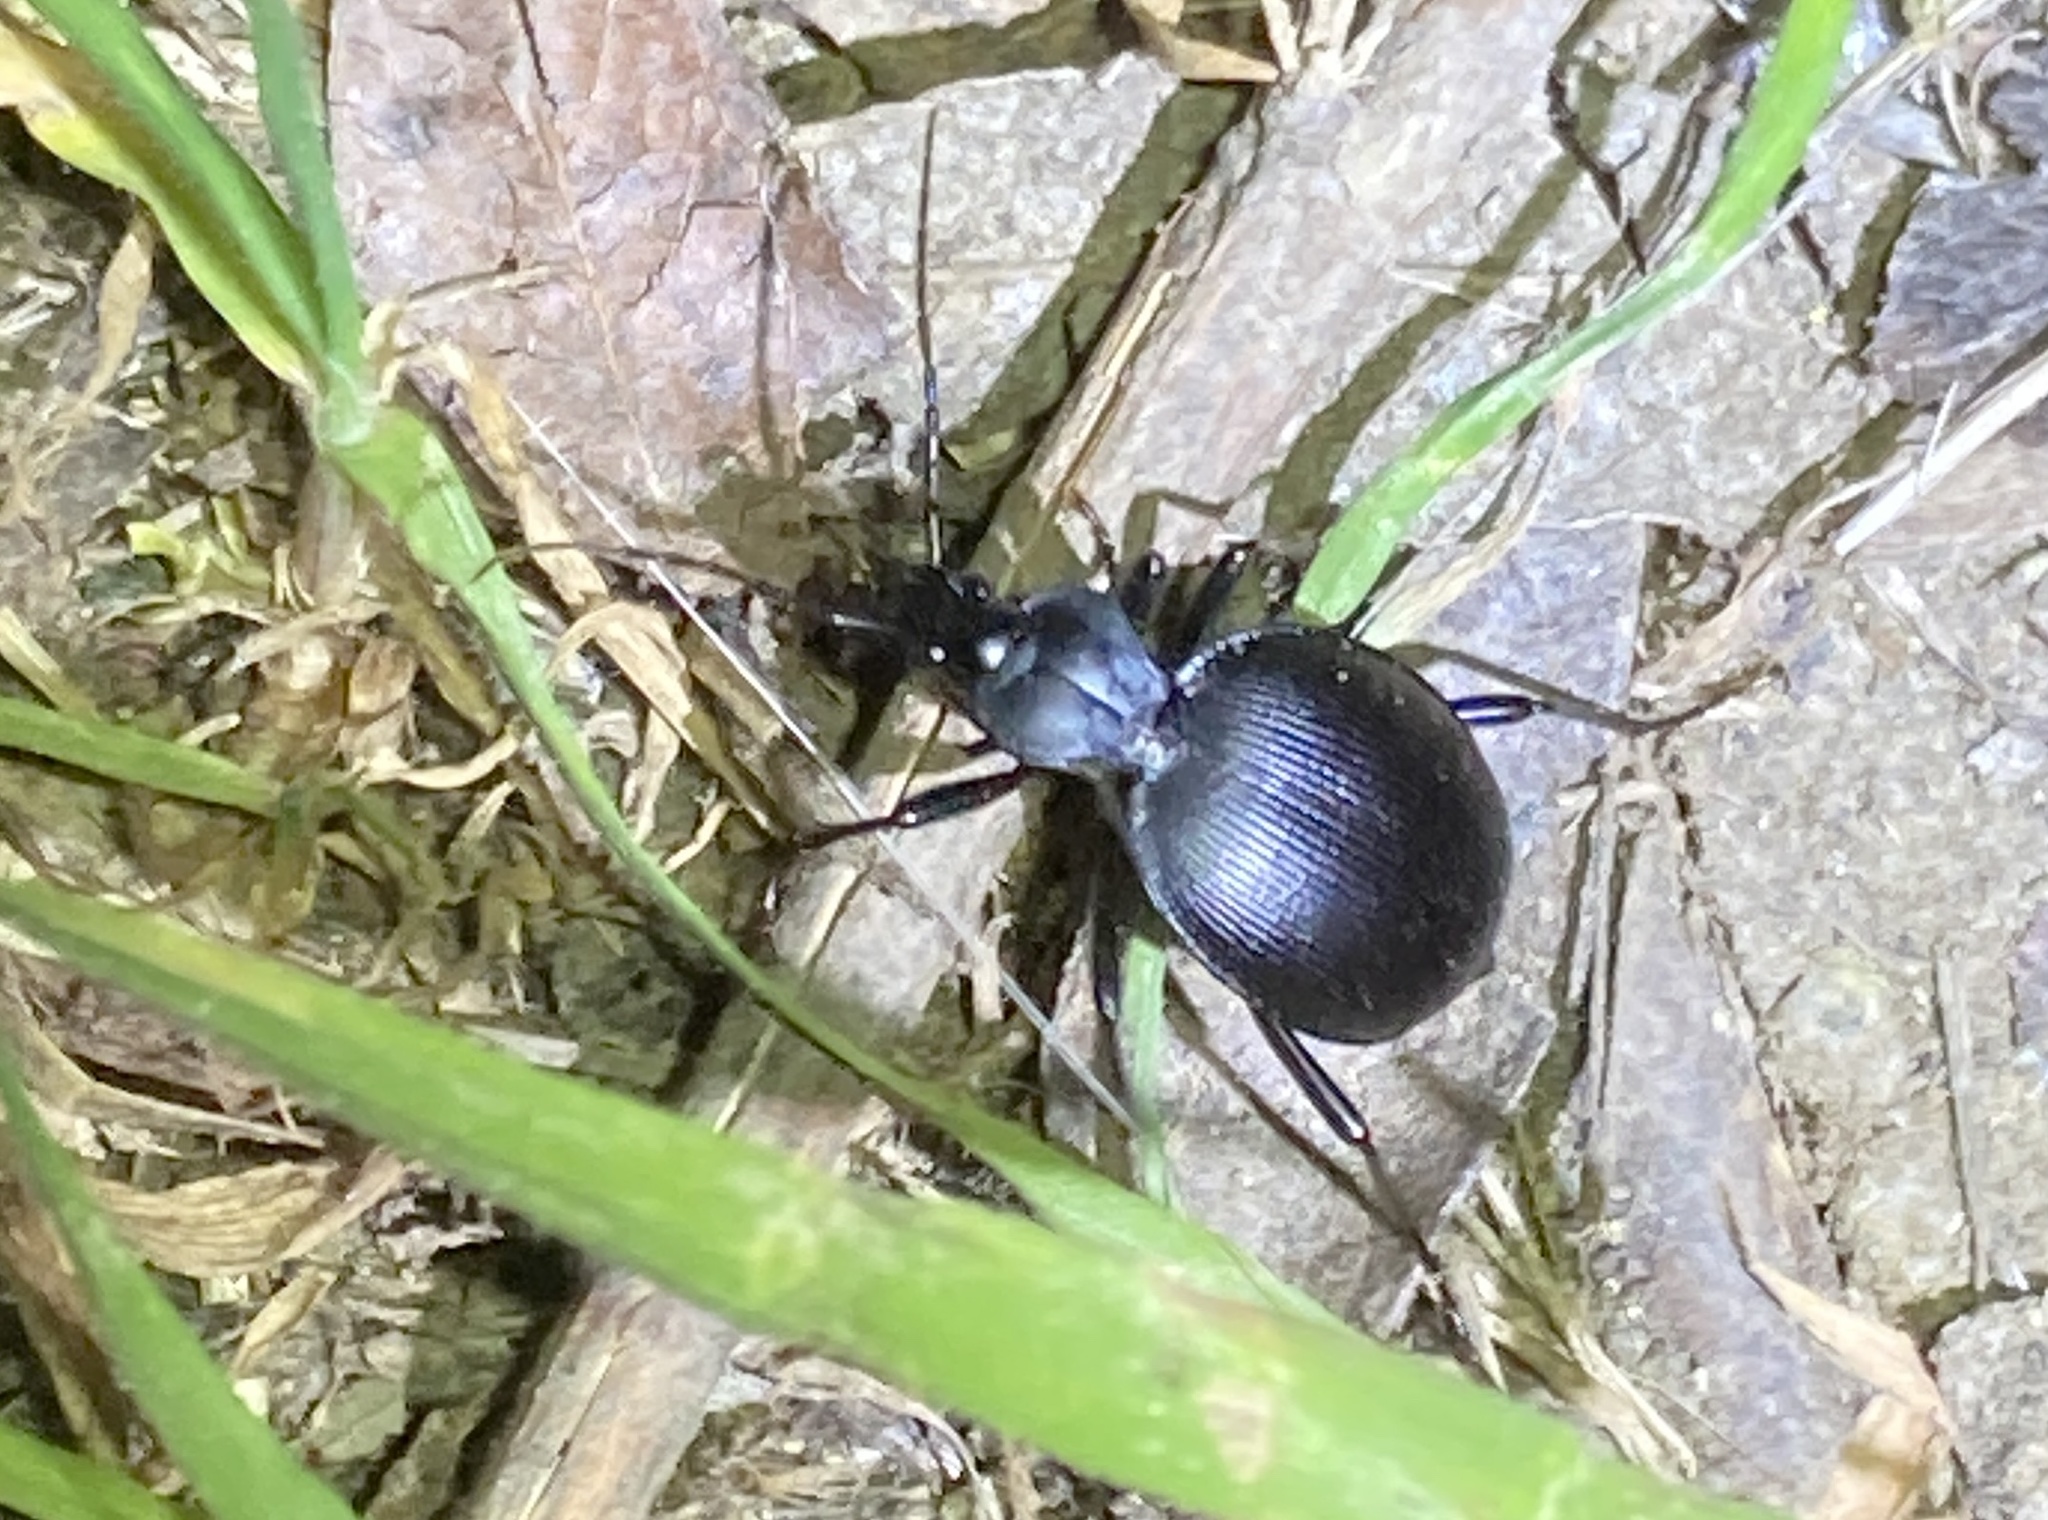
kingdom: Animalia
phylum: Arthropoda
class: Insecta
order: Coleoptera
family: Carabidae
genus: Scaphinotus
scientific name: Scaphinotus
